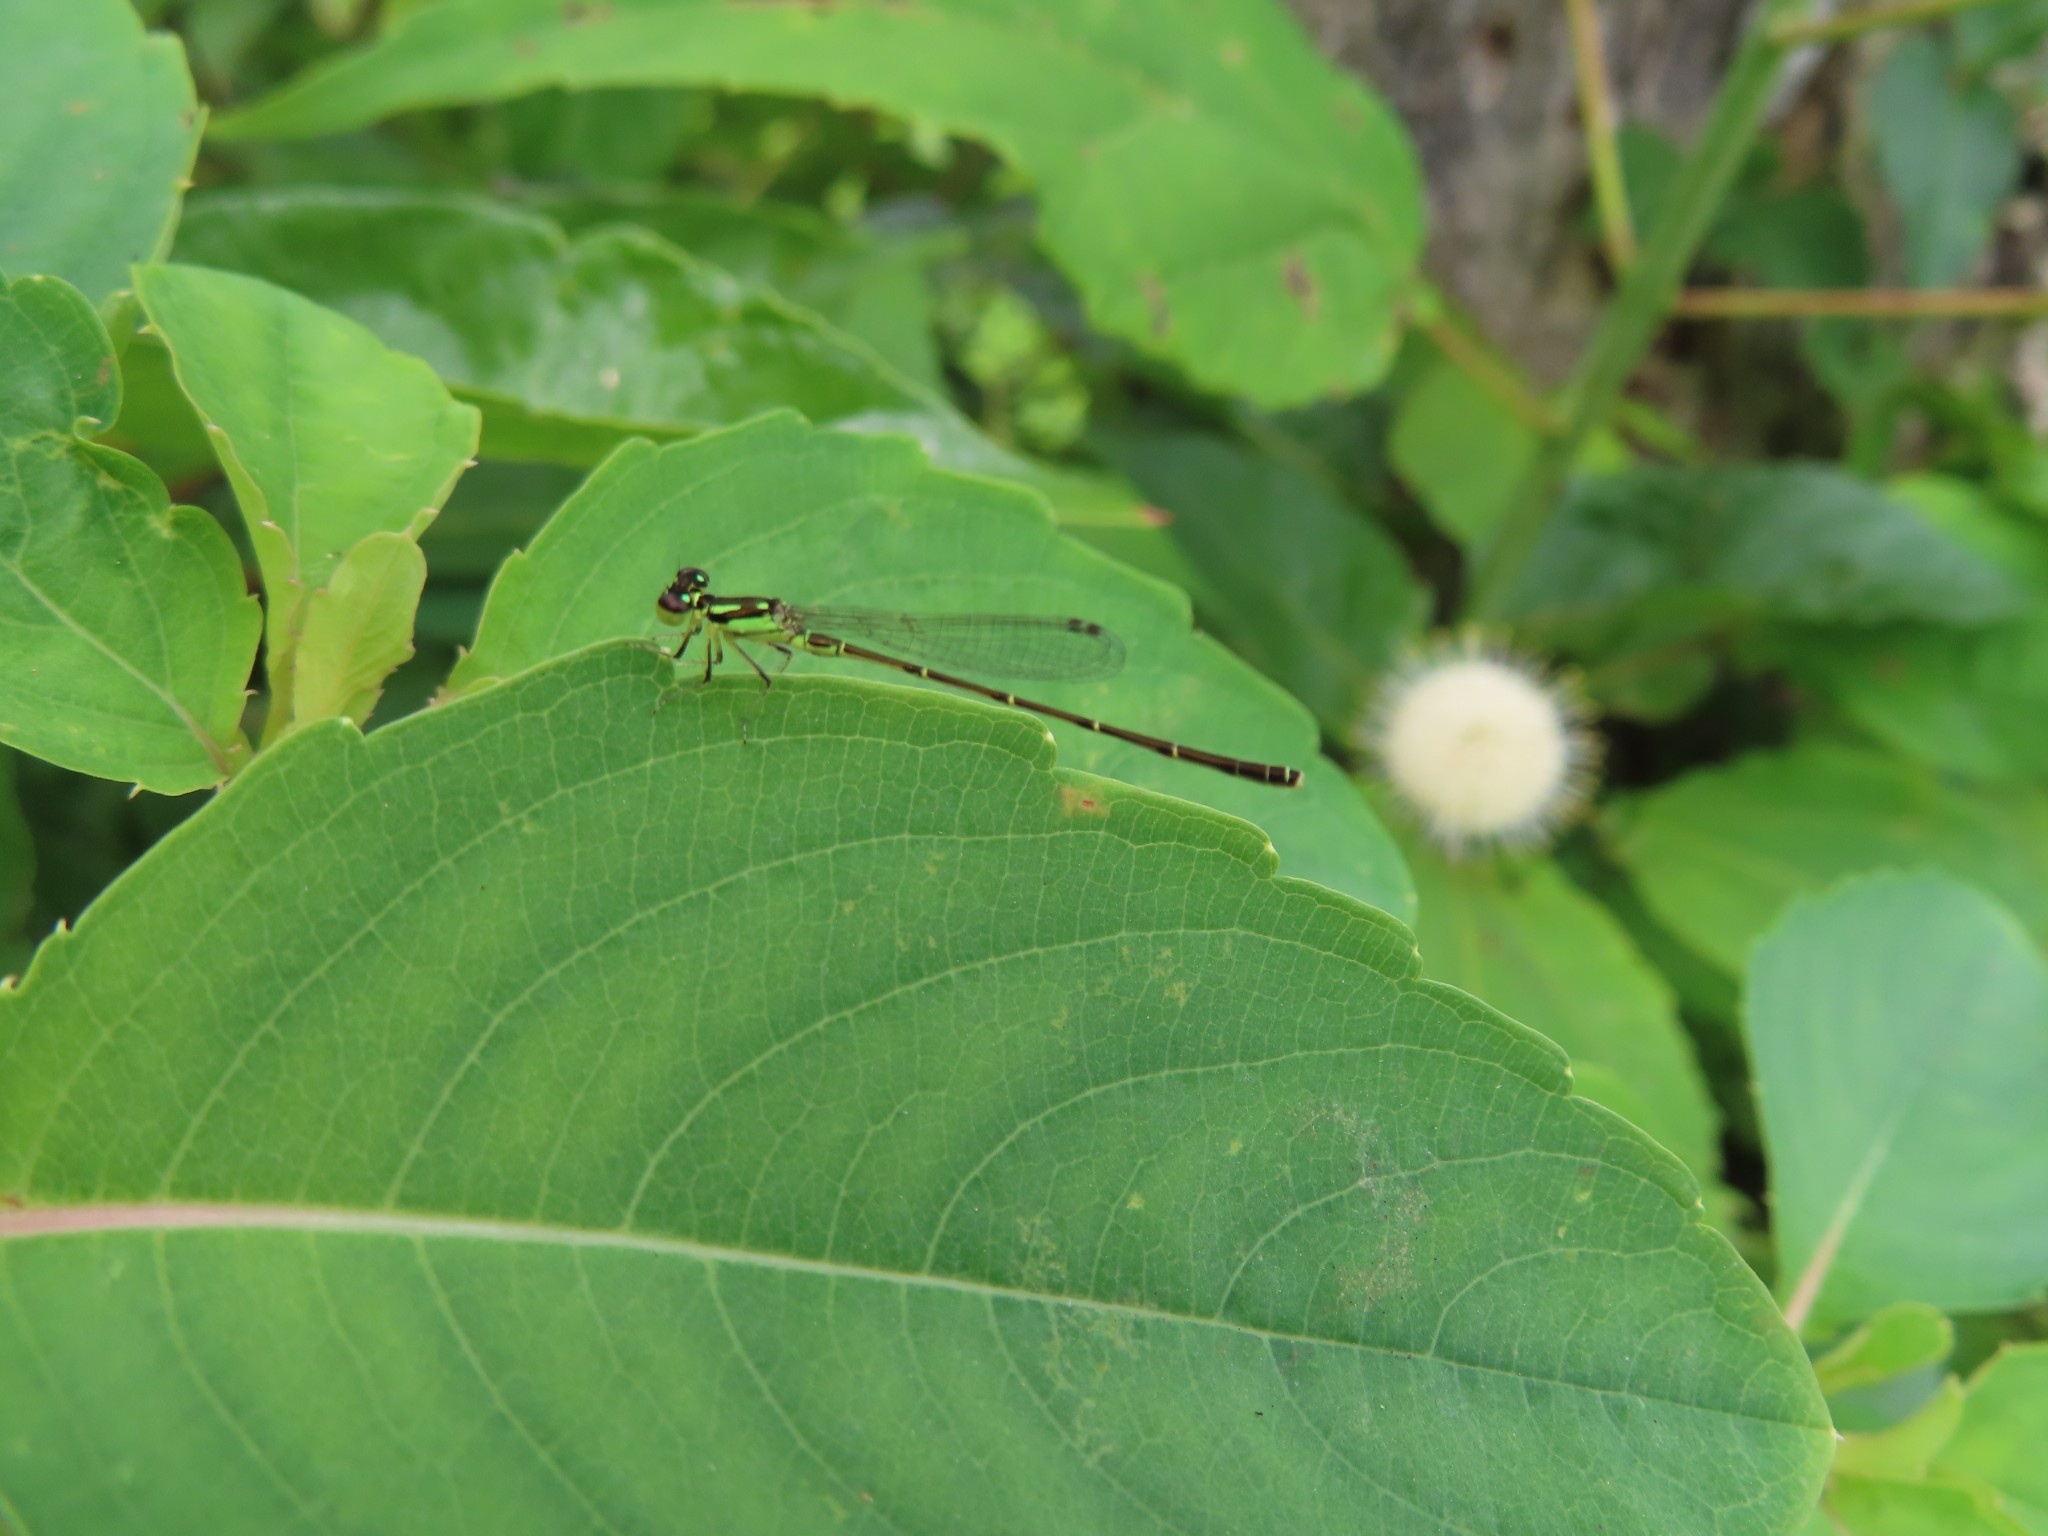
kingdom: Animalia
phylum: Arthropoda
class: Insecta
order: Odonata
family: Coenagrionidae
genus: Ischnura
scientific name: Ischnura posita
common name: Fragile forktail
